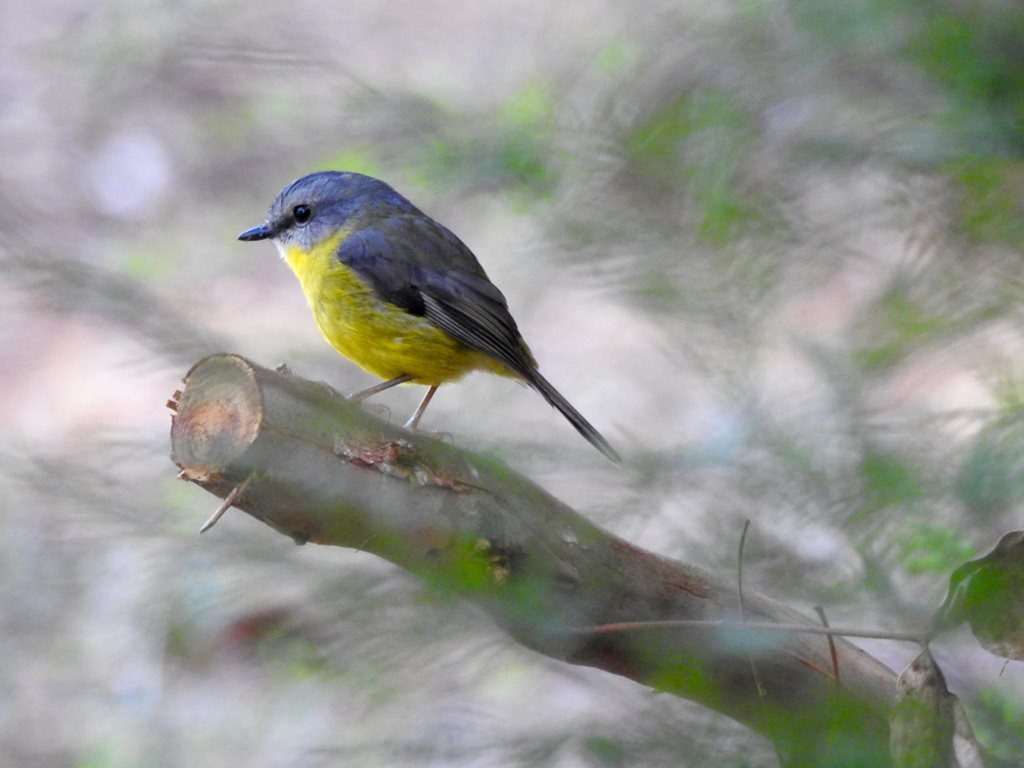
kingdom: Animalia
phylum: Chordata
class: Aves
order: Passeriformes
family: Petroicidae
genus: Eopsaltria
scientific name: Eopsaltria australis
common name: Eastern yellow robin
